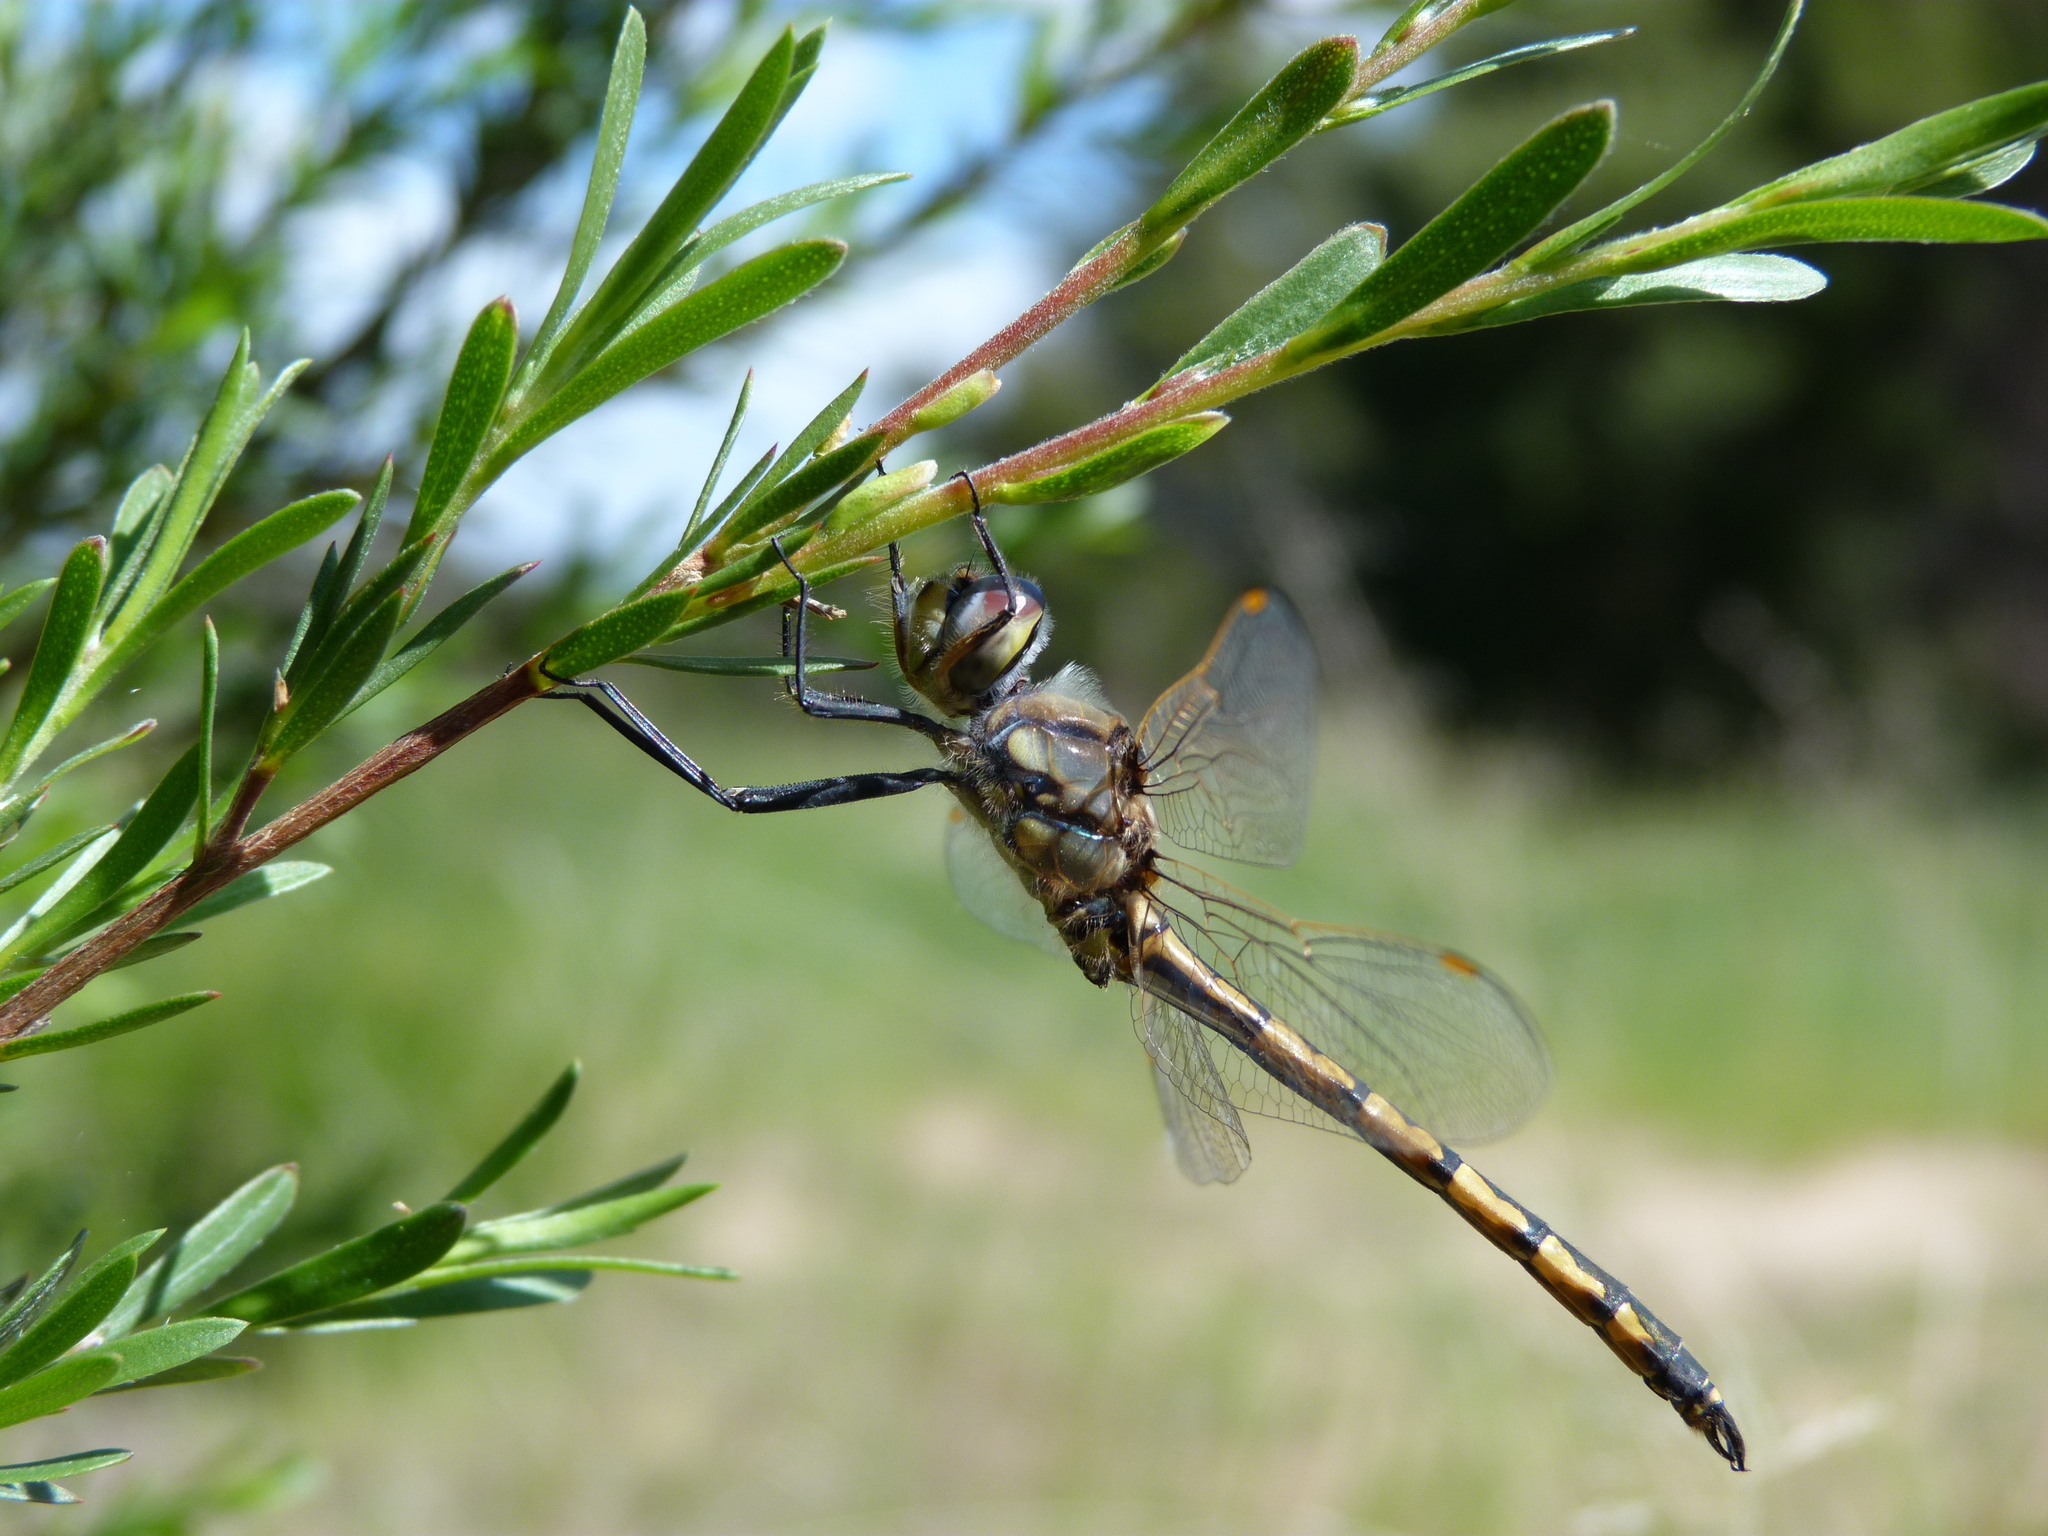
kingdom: Animalia
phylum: Arthropoda
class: Insecta
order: Odonata
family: Corduliidae
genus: Hemicordulia
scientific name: Hemicordulia tau
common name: Tau emerald
